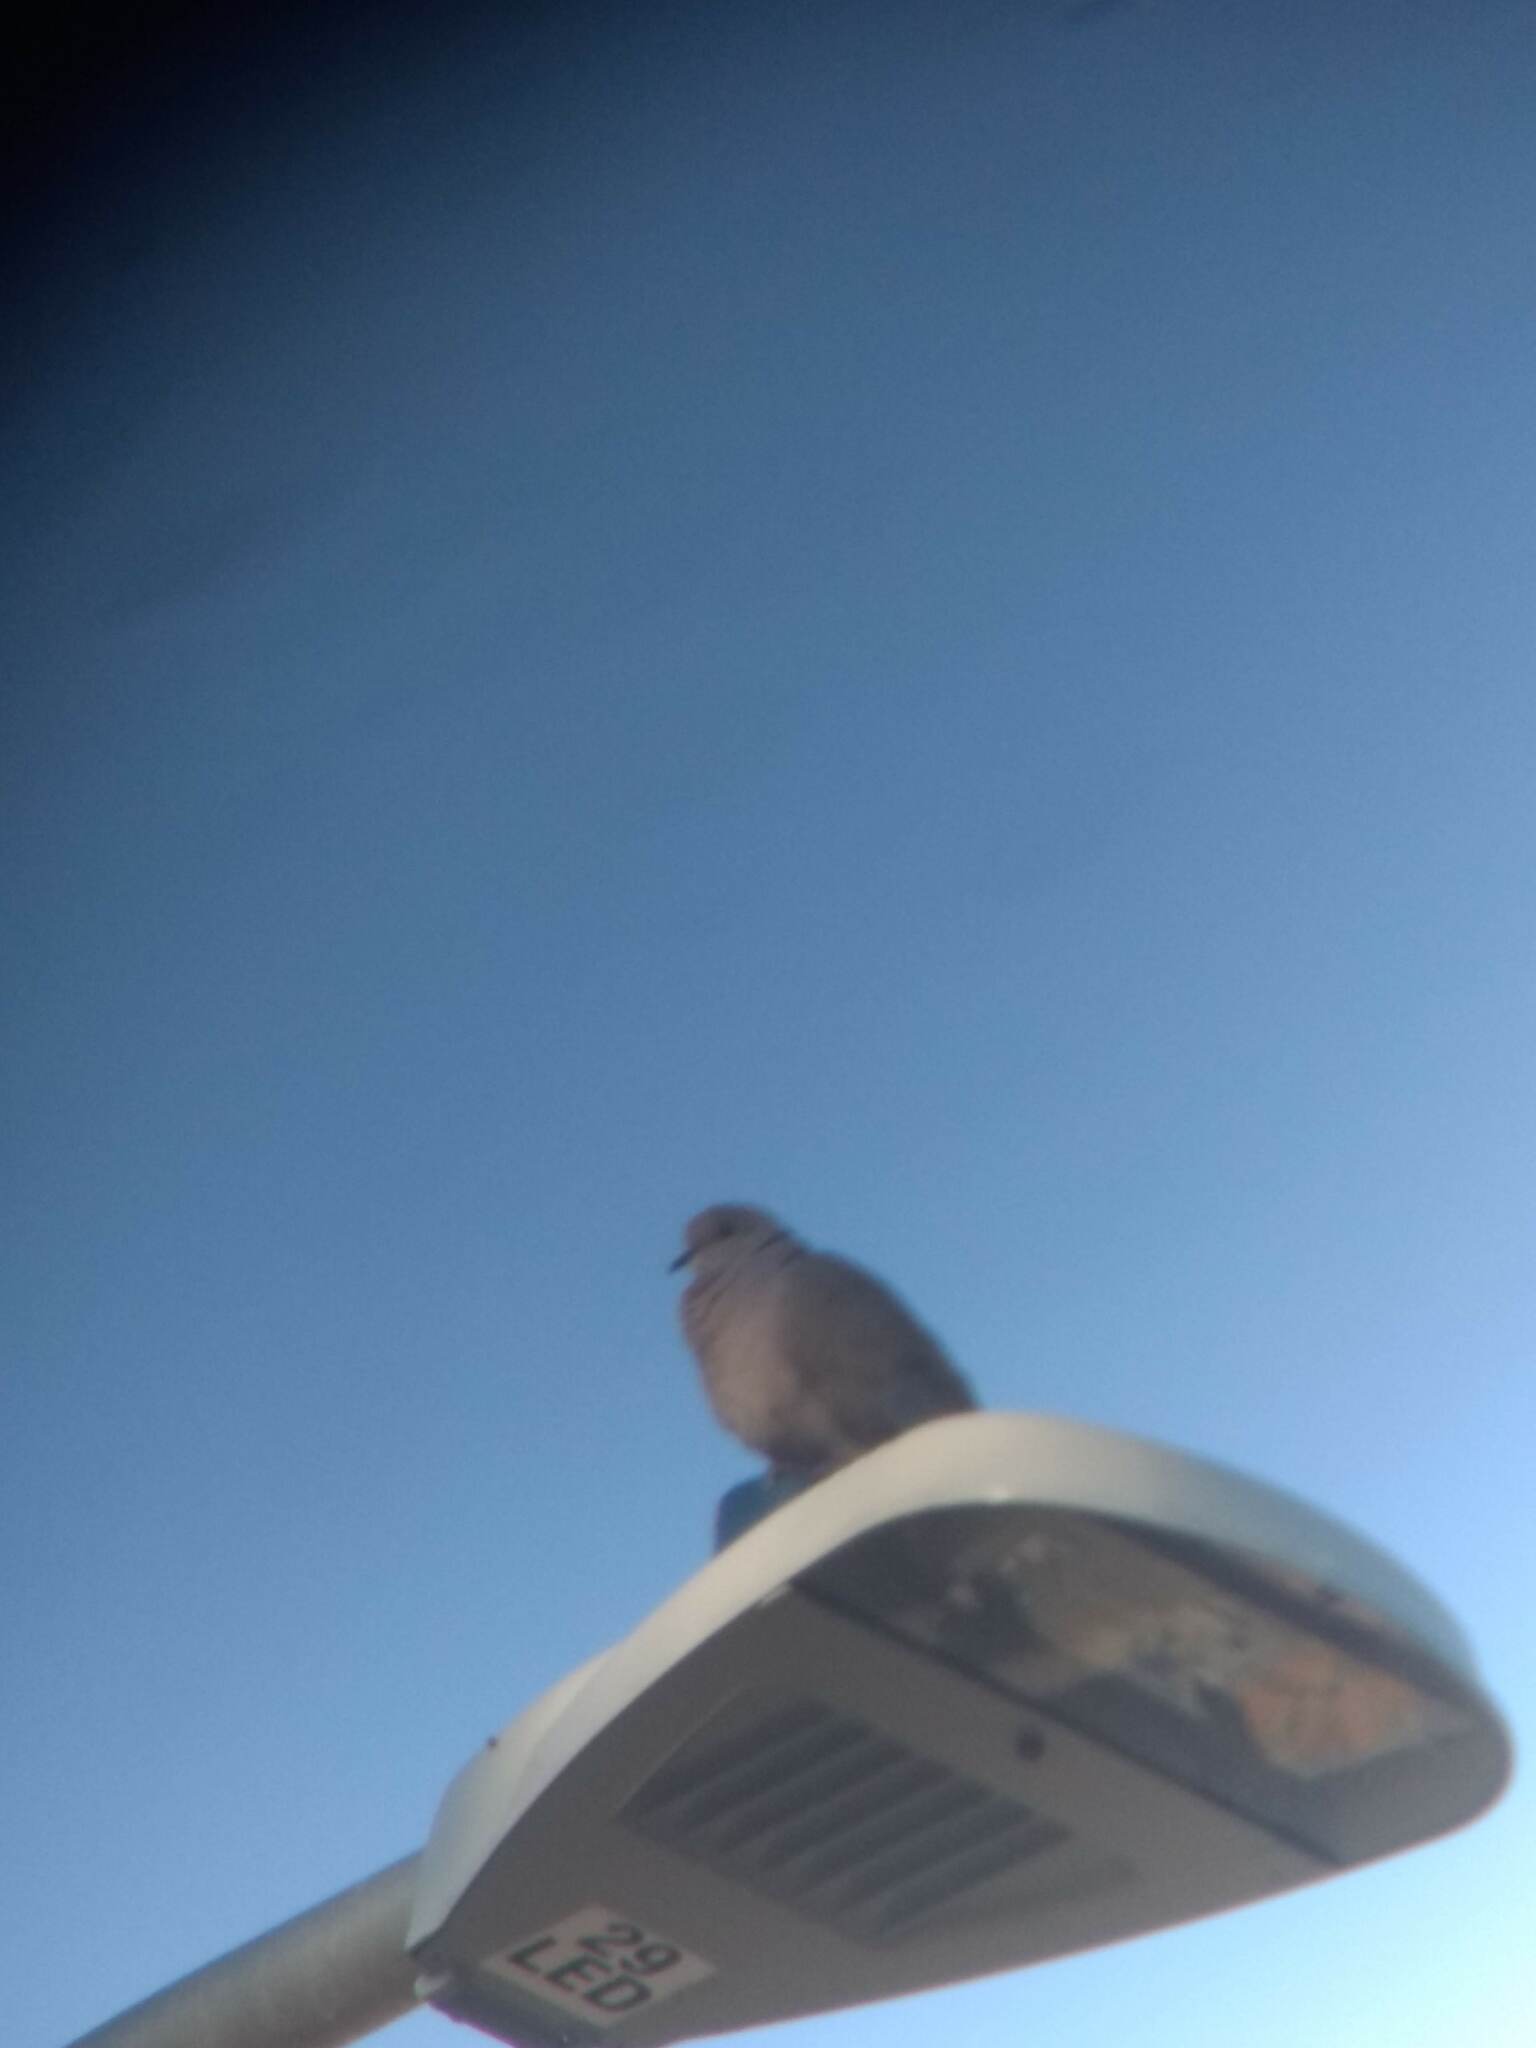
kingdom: Animalia
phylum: Chordata
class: Aves
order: Columbiformes
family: Columbidae
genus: Streptopelia
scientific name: Streptopelia decaocto
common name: Eurasian collared dove
